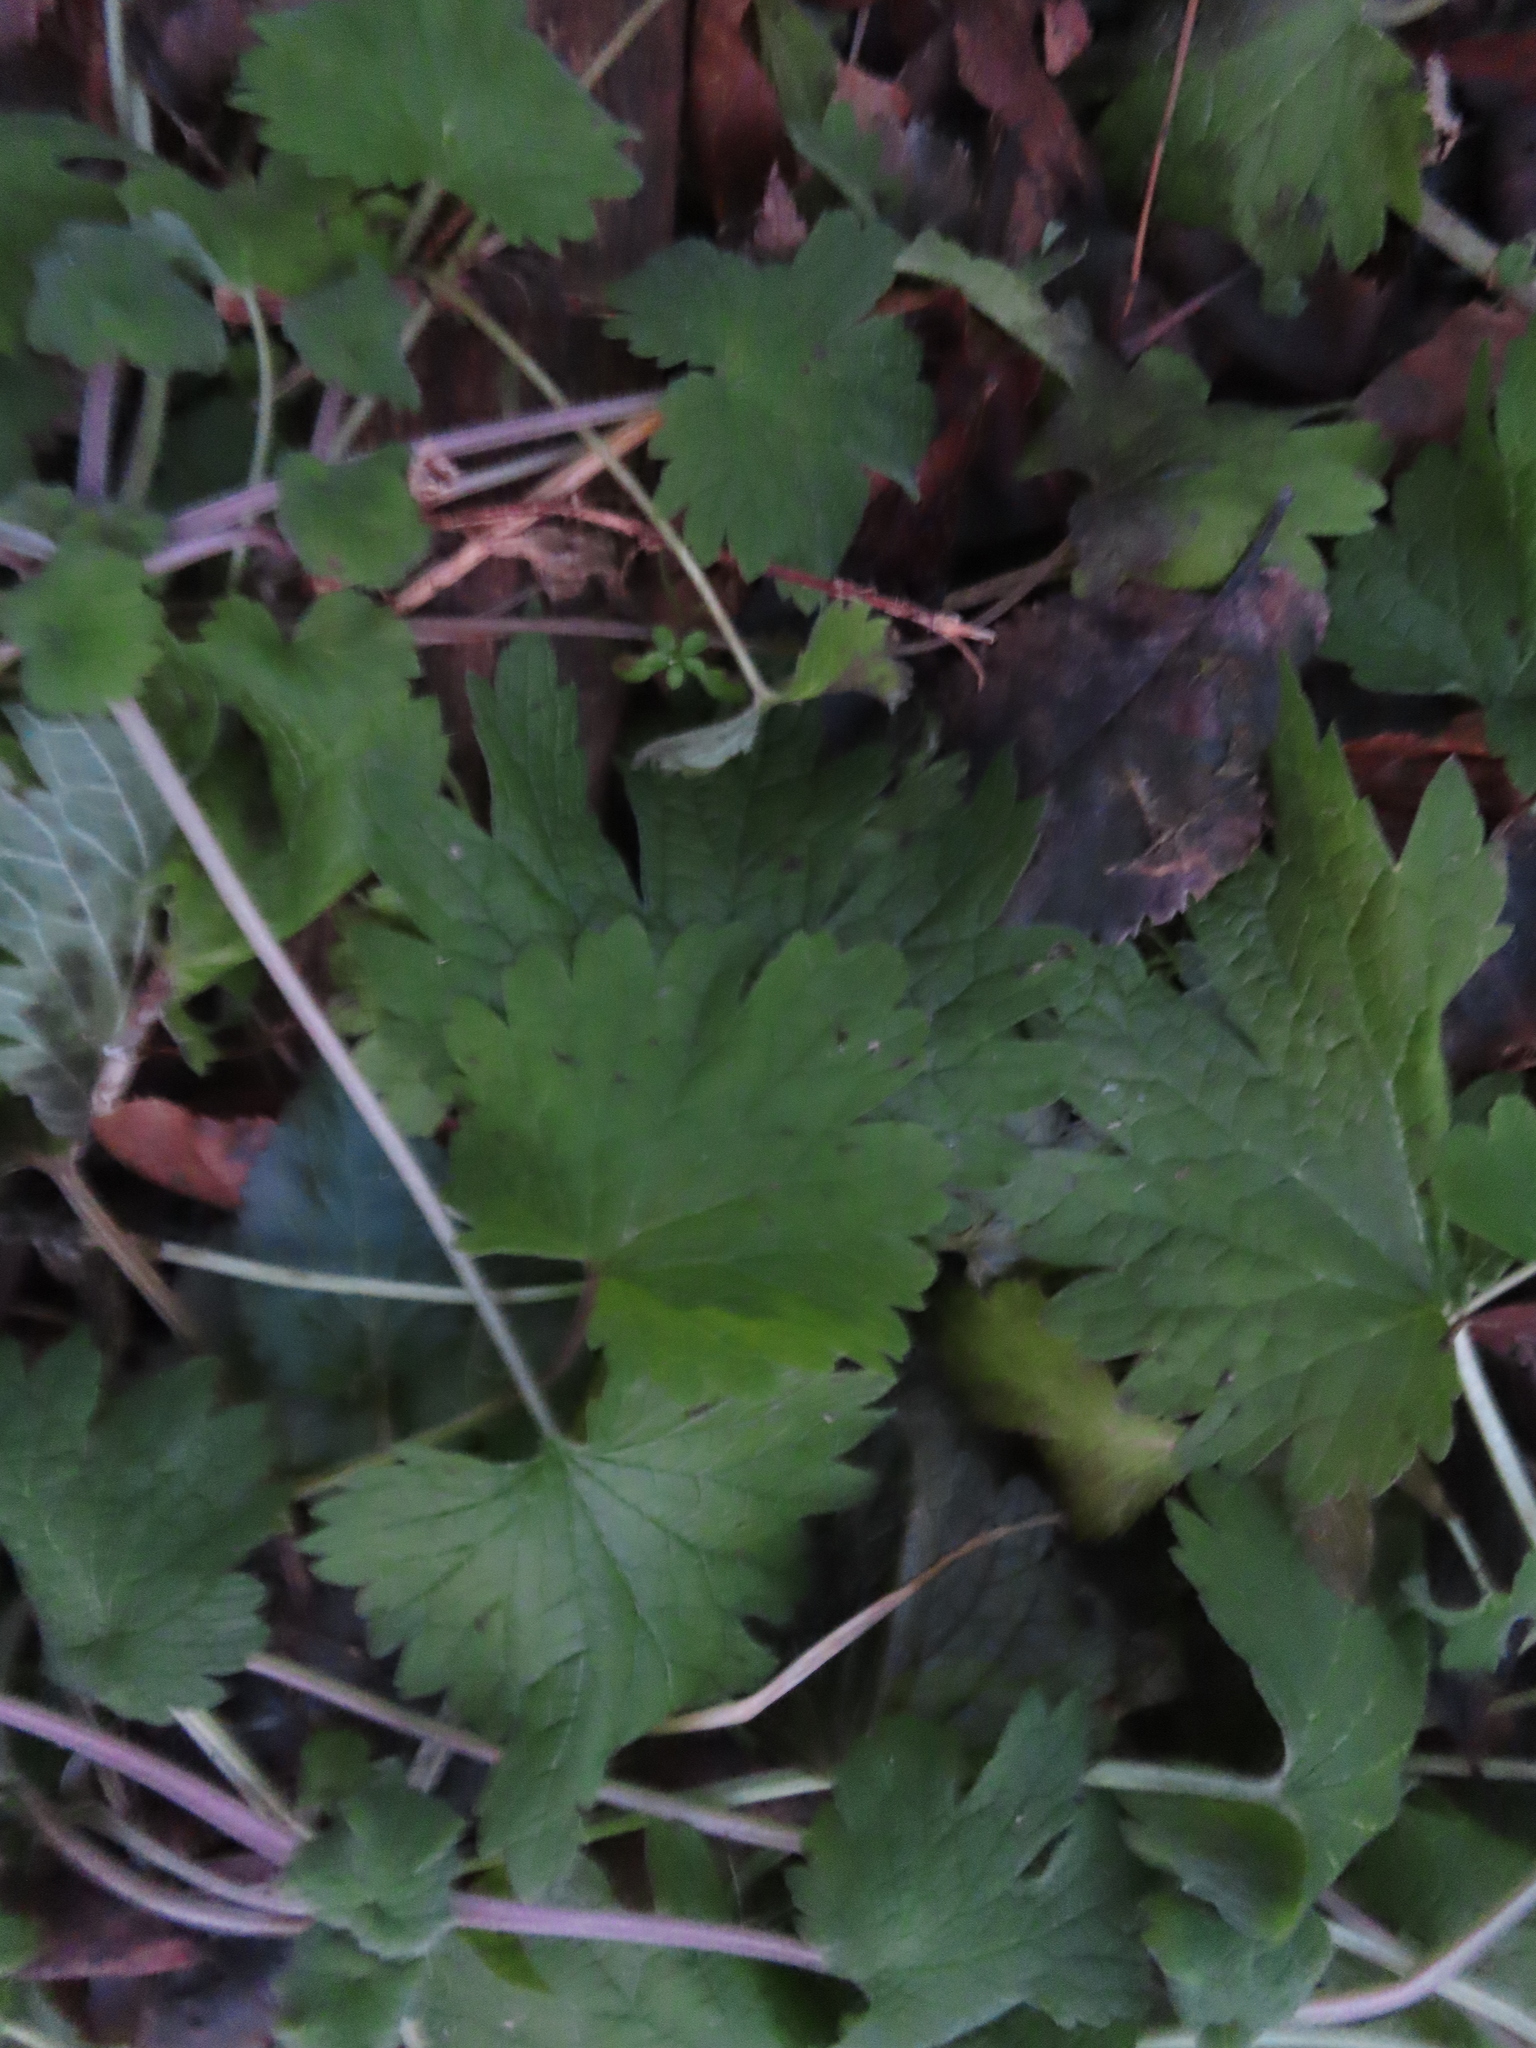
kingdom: Plantae
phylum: Tracheophyta
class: Magnoliopsida
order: Lamiales
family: Lamiaceae
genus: Leonurus
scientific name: Leonurus cardiaca
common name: Motherwort
